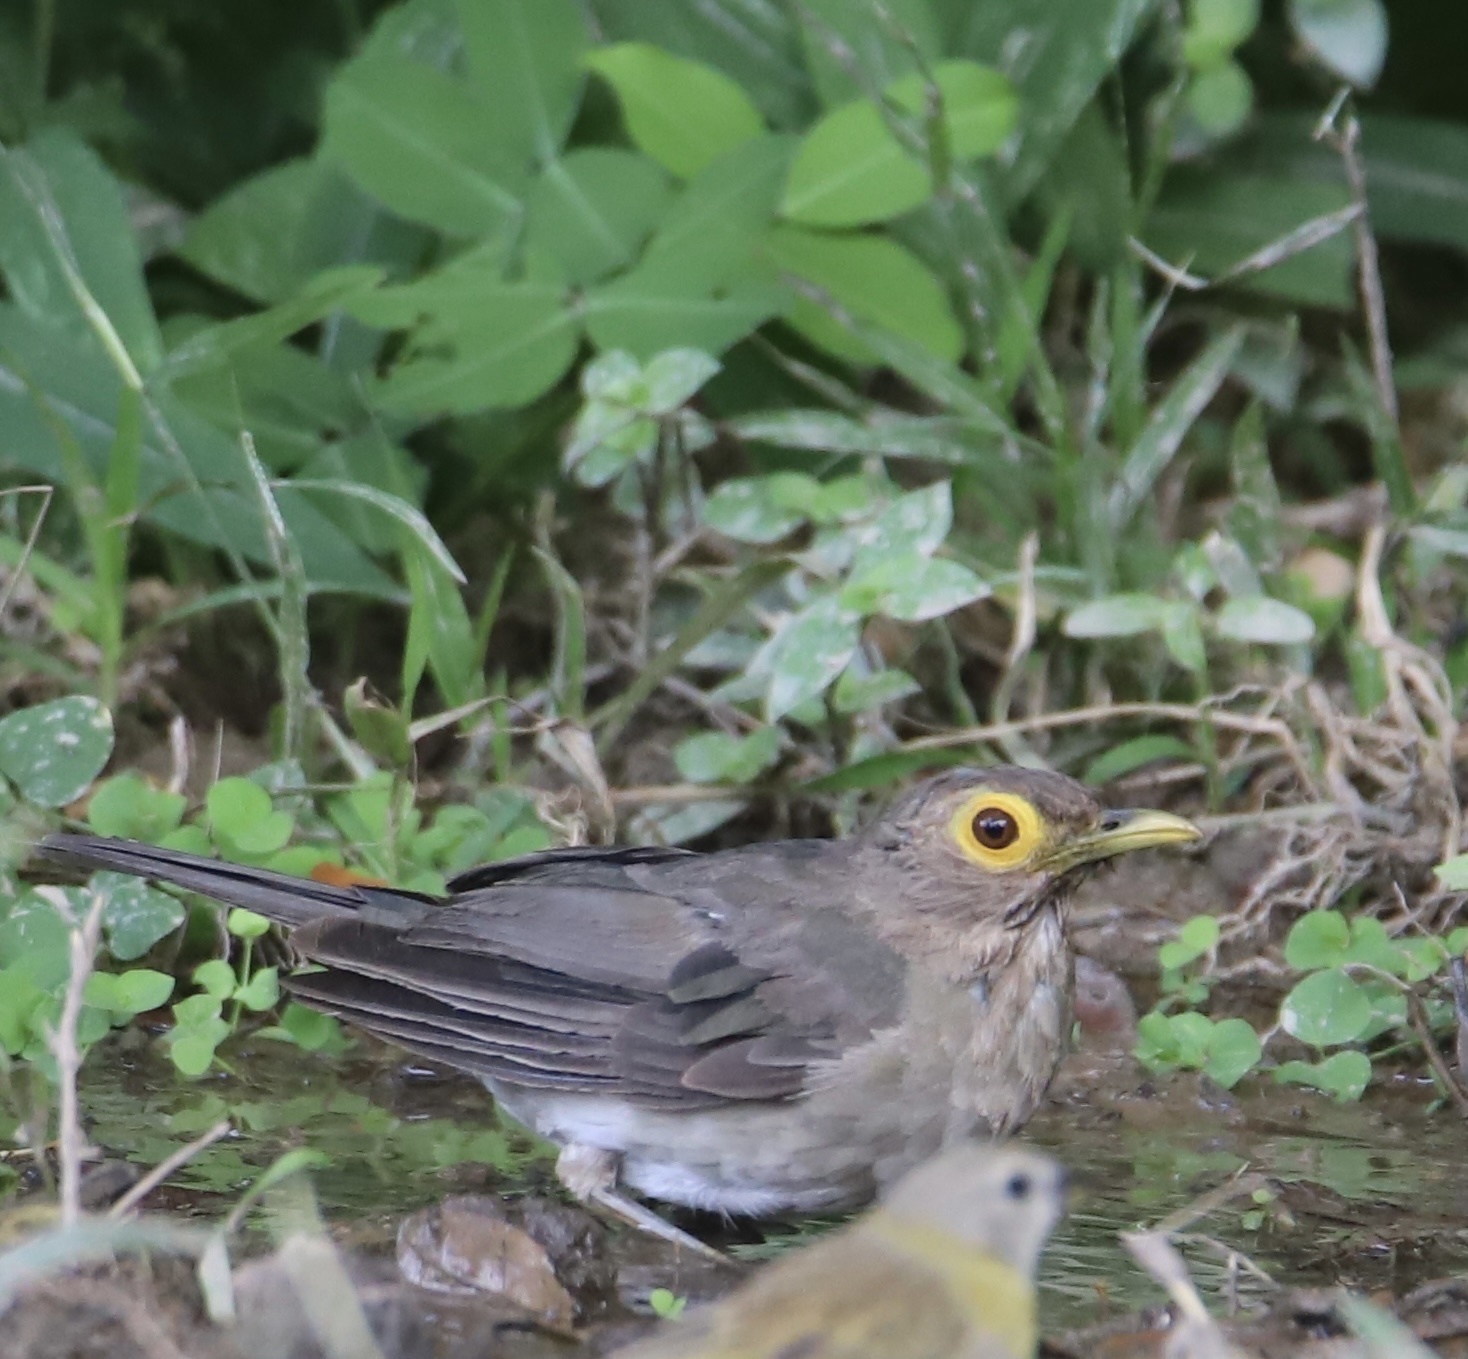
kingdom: Animalia
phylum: Chordata
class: Aves
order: Passeriformes
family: Turdidae
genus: Turdus
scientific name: Turdus nudigenis
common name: Spectacled thrush
